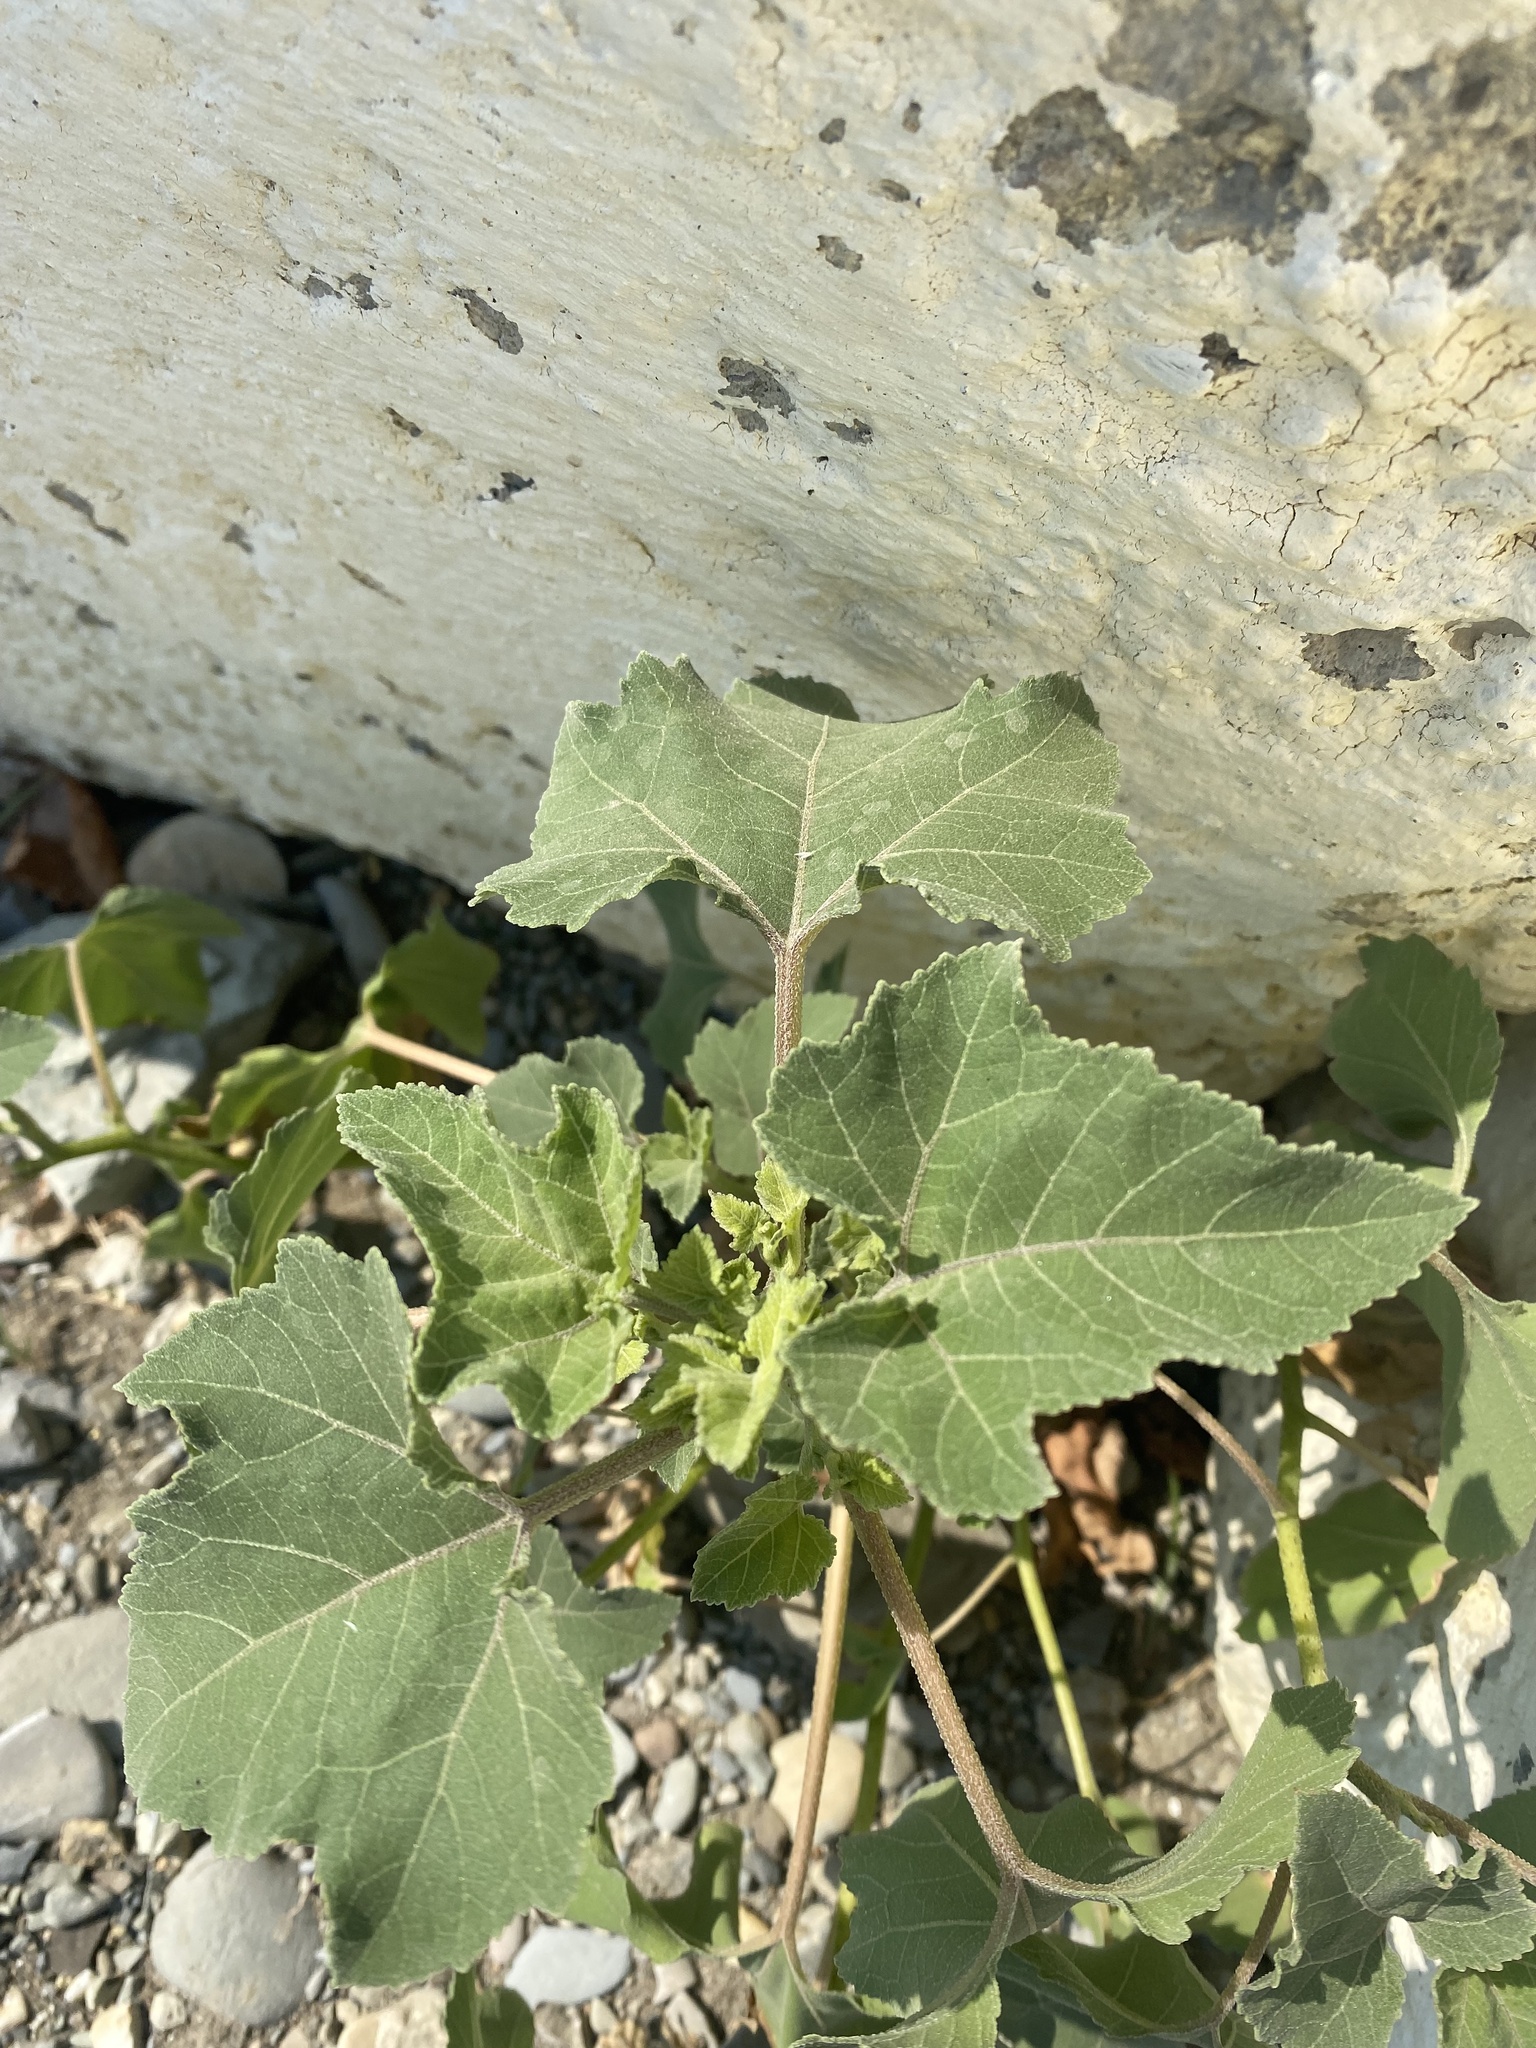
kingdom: Plantae
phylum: Tracheophyta
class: Magnoliopsida
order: Asterales
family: Asteraceae
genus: Xanthium
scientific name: Xanthium orientale
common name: Californian burr
